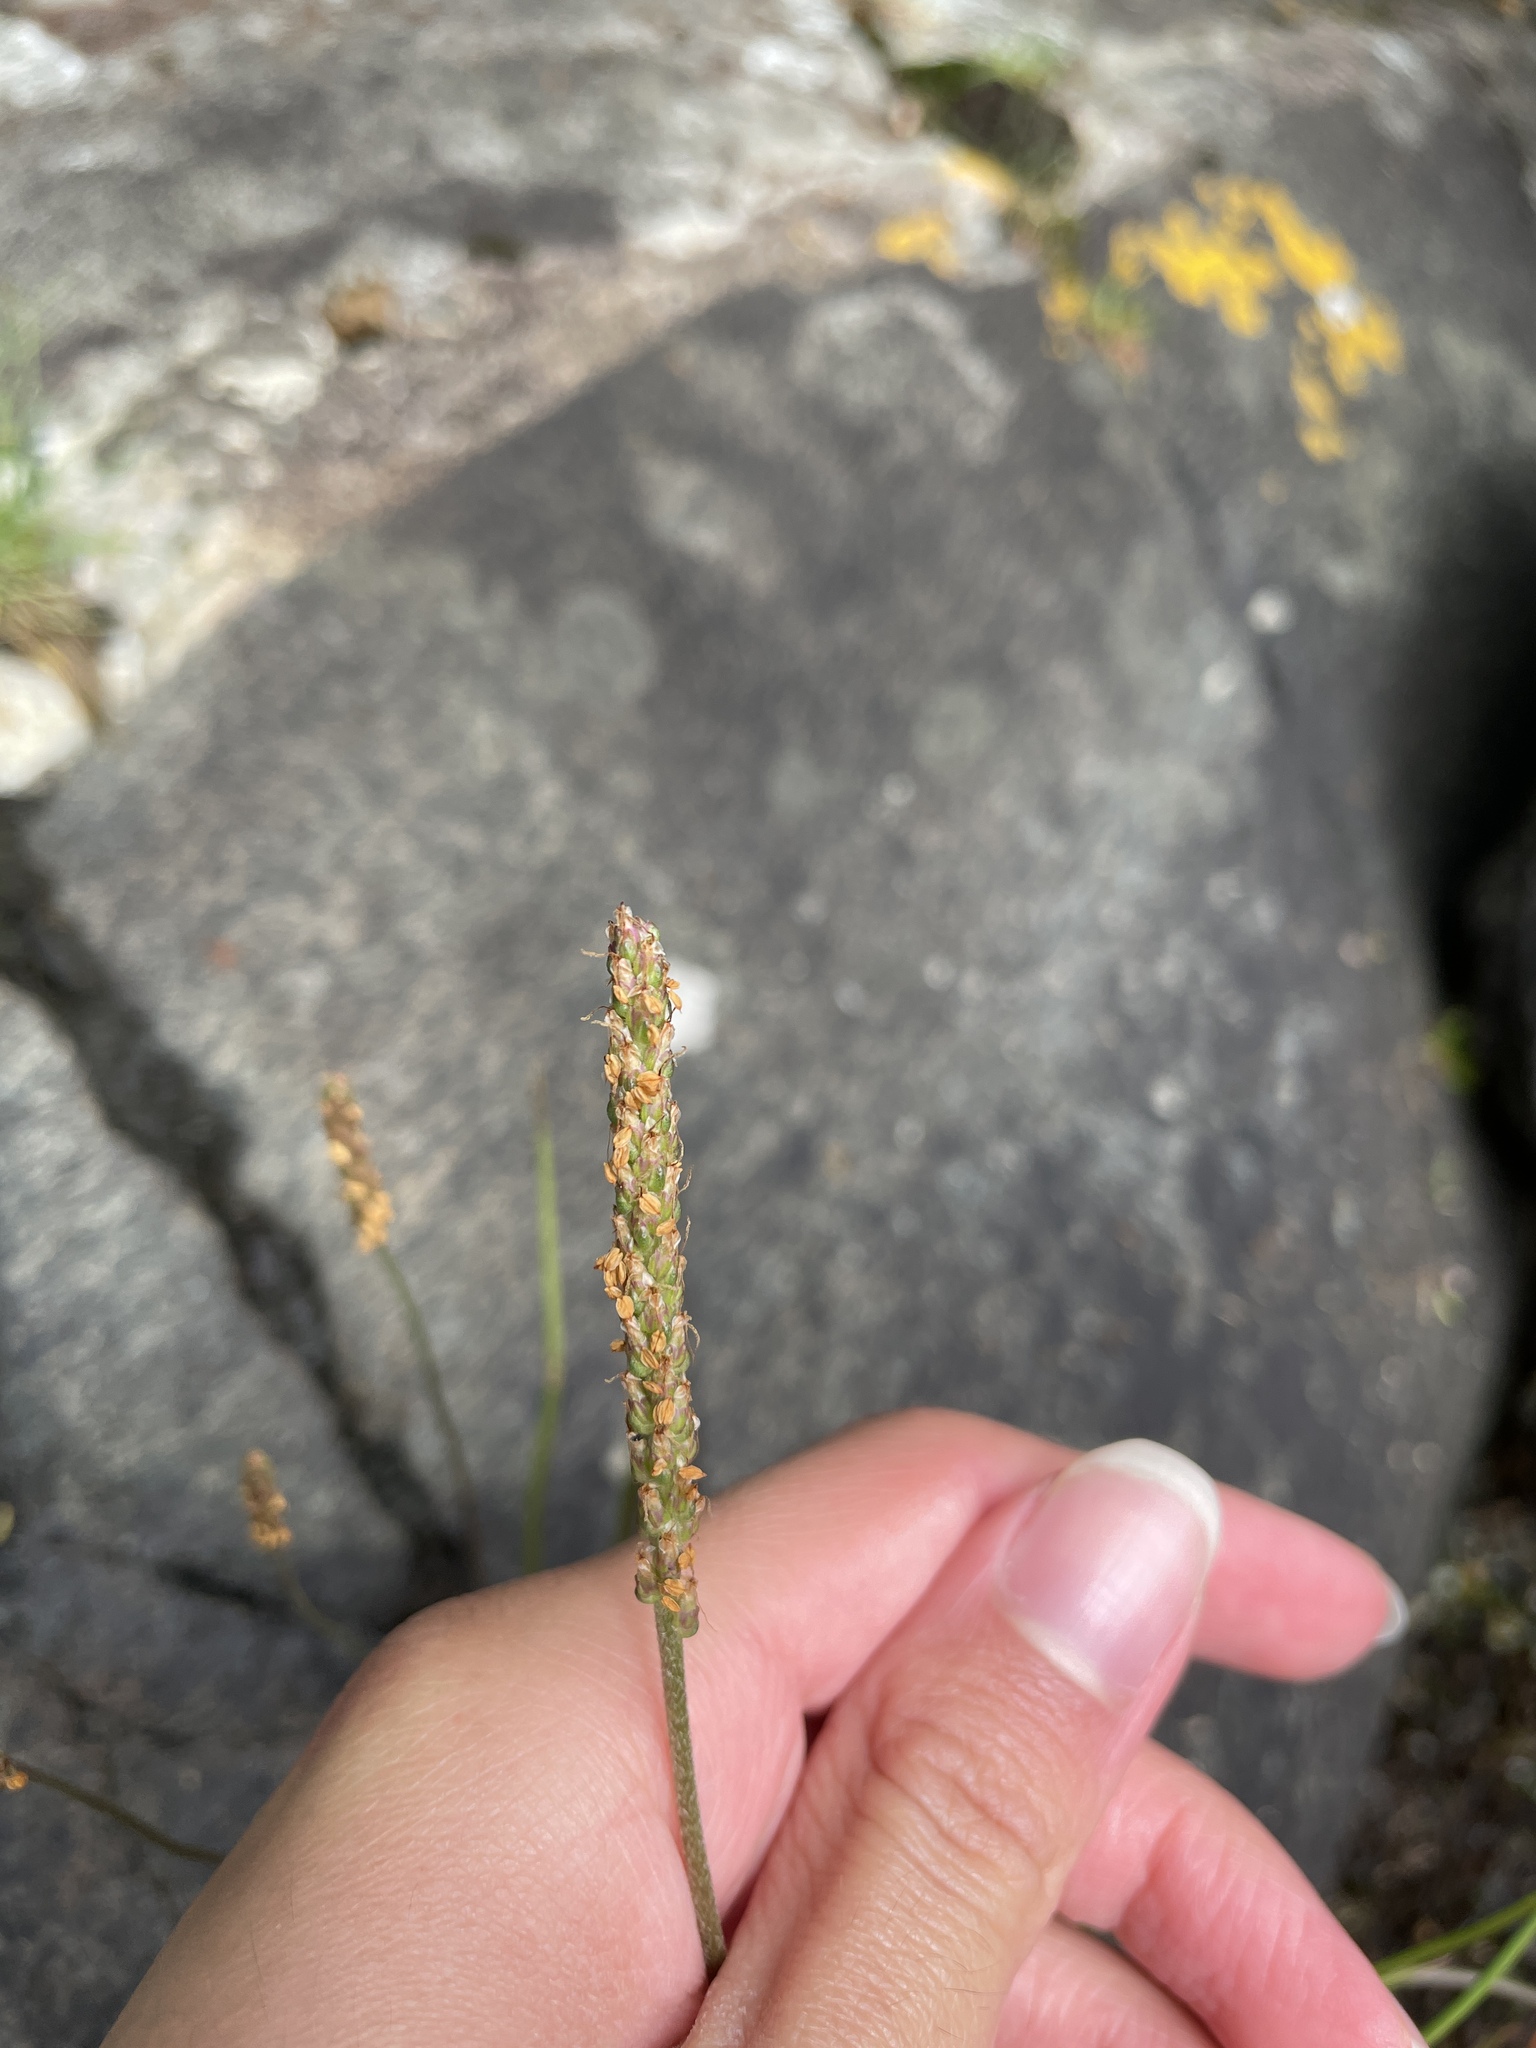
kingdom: Plantae
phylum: Tracheophyta
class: Magnoliopsida
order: Lamiales
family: Plantaginaceae
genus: Plantago
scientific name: Plantago maritima
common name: Sea plantain
